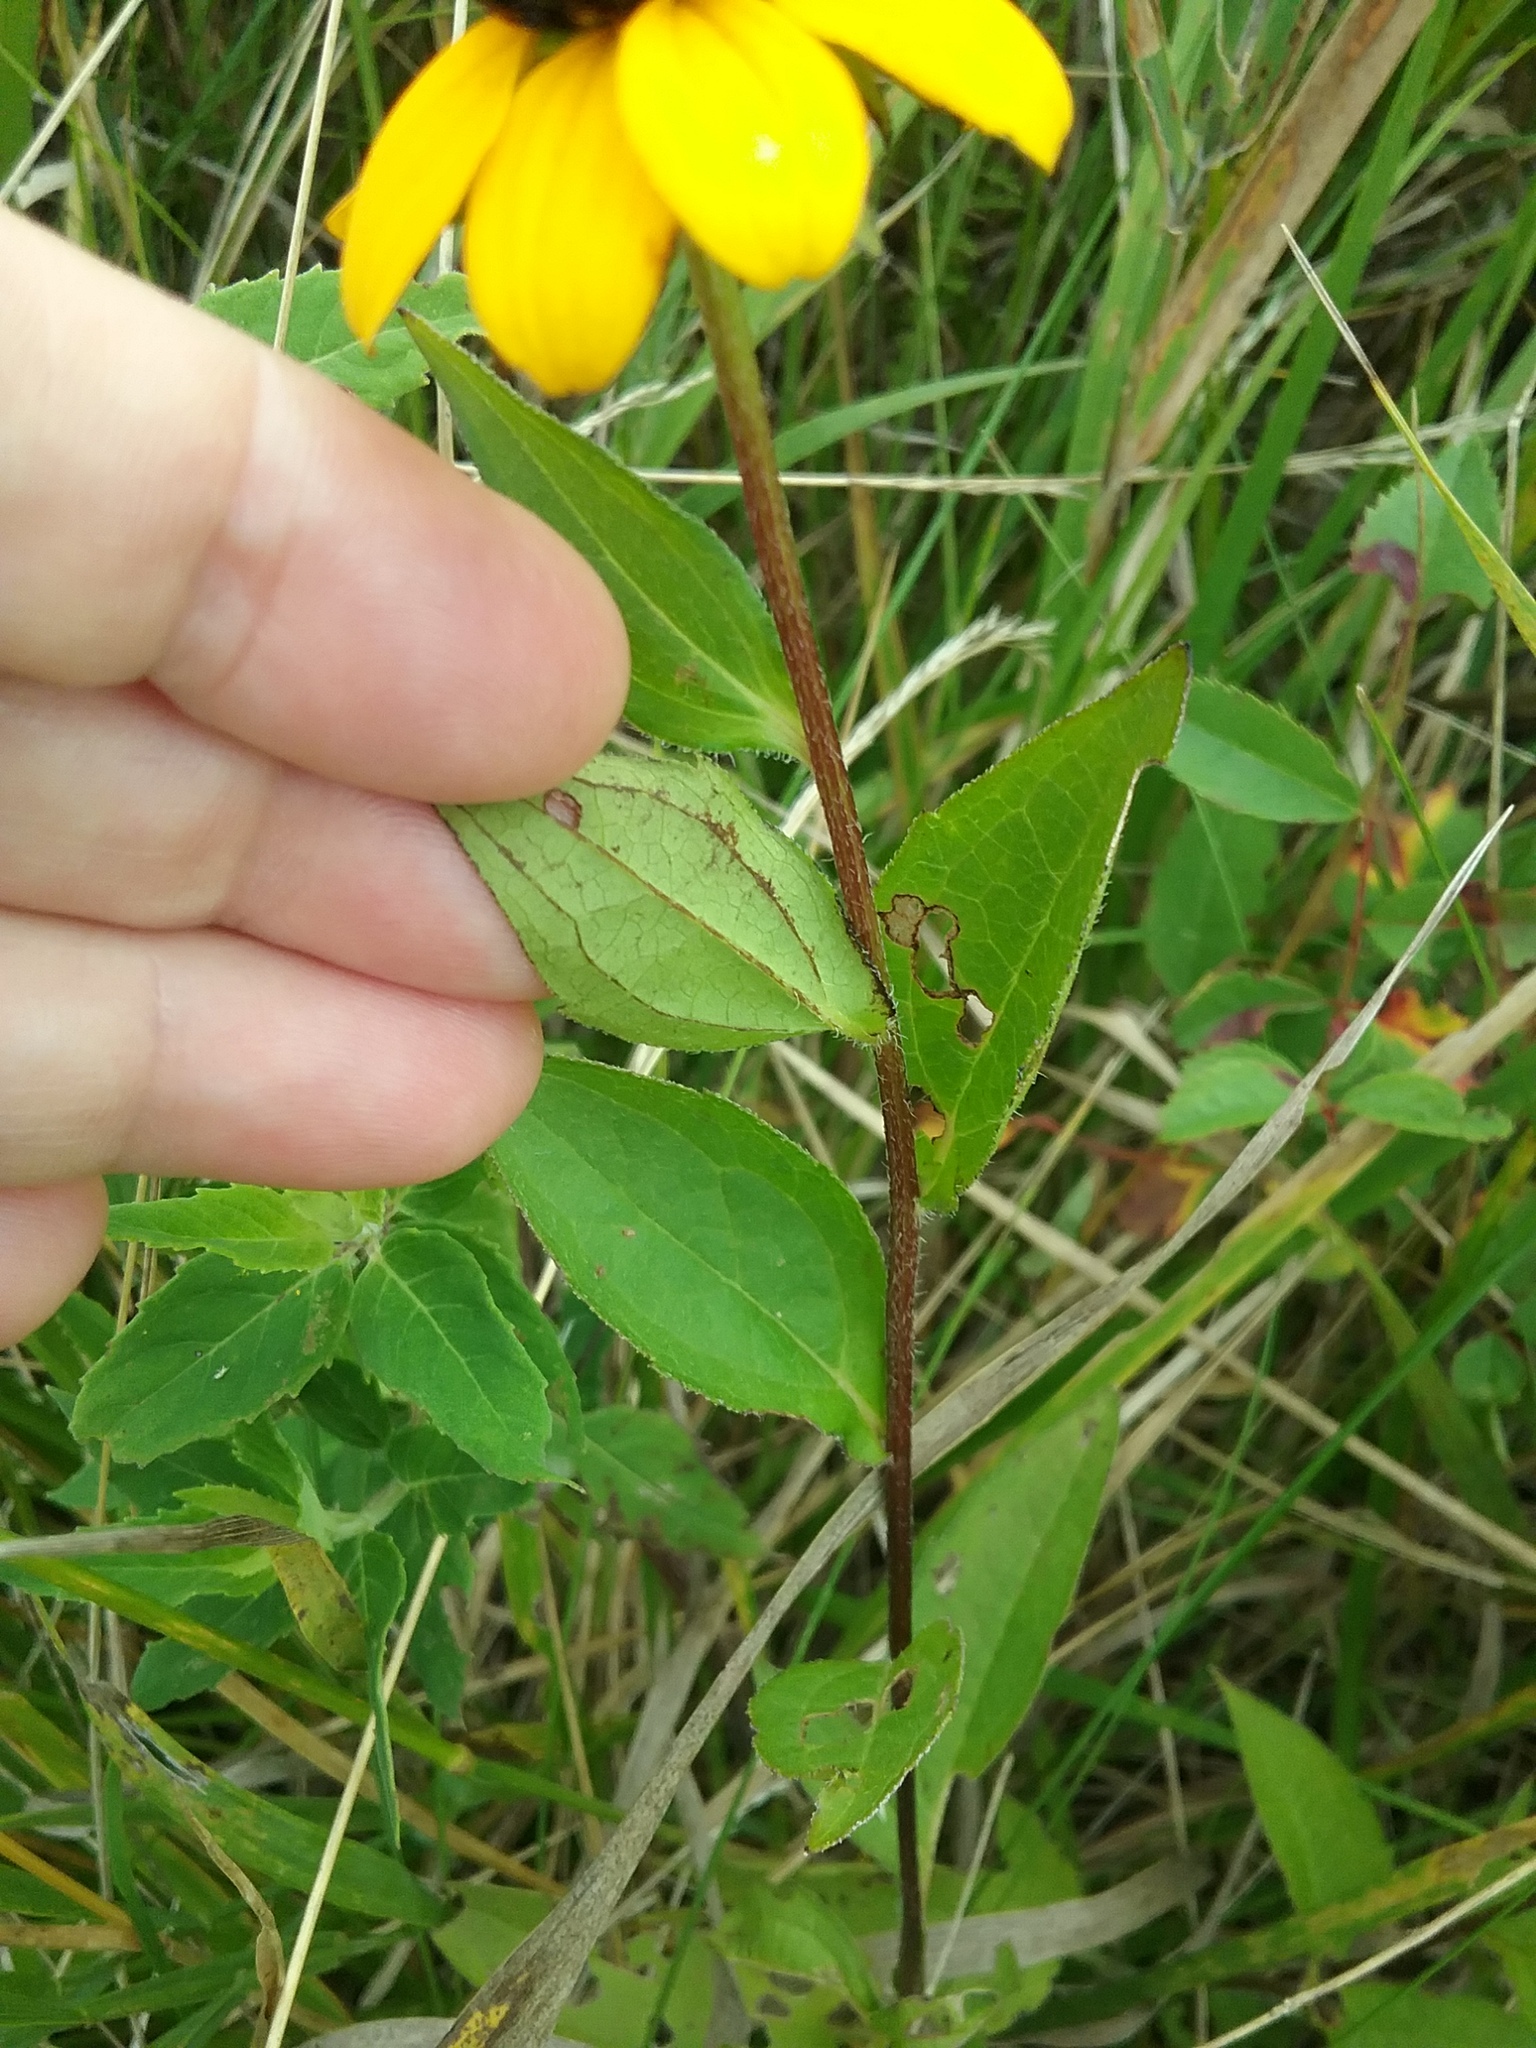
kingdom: Plantae
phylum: Tracheophyta
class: Magnoliopsida
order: Asterales
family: Asteraceae
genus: Rudbeckia
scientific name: Rudbeckia triloba
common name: Thin-leaved coneflower
